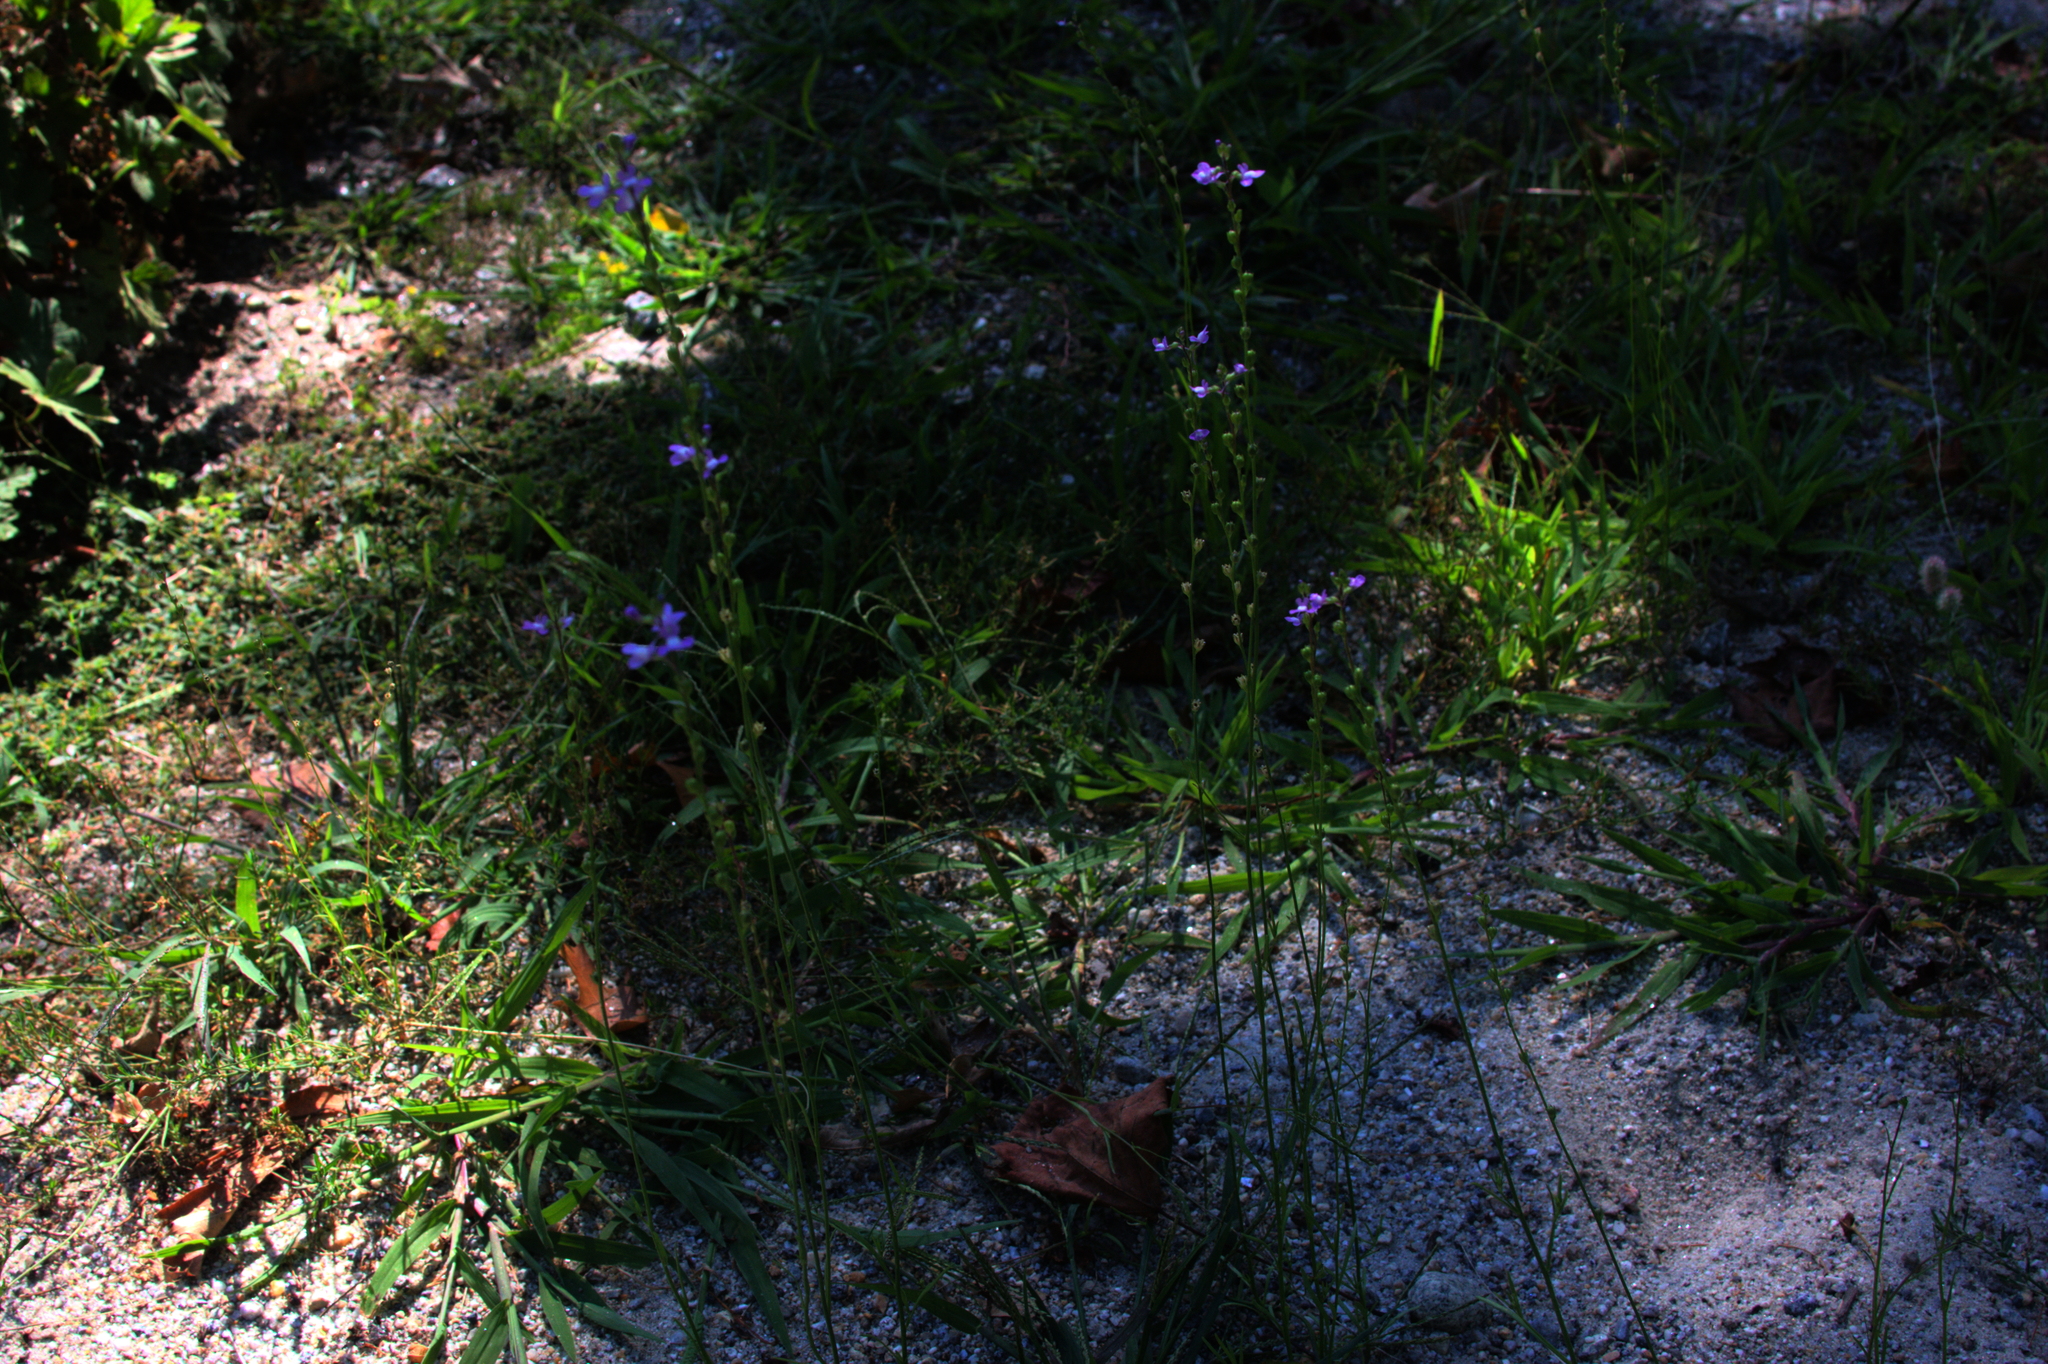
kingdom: Plantae
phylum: Tracheophyta
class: Magnoliopsida
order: Lamiales
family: Plantaginaceae
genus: Nuttallanthus
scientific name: Nuttallanthus canadensis
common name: Blue toadflax
